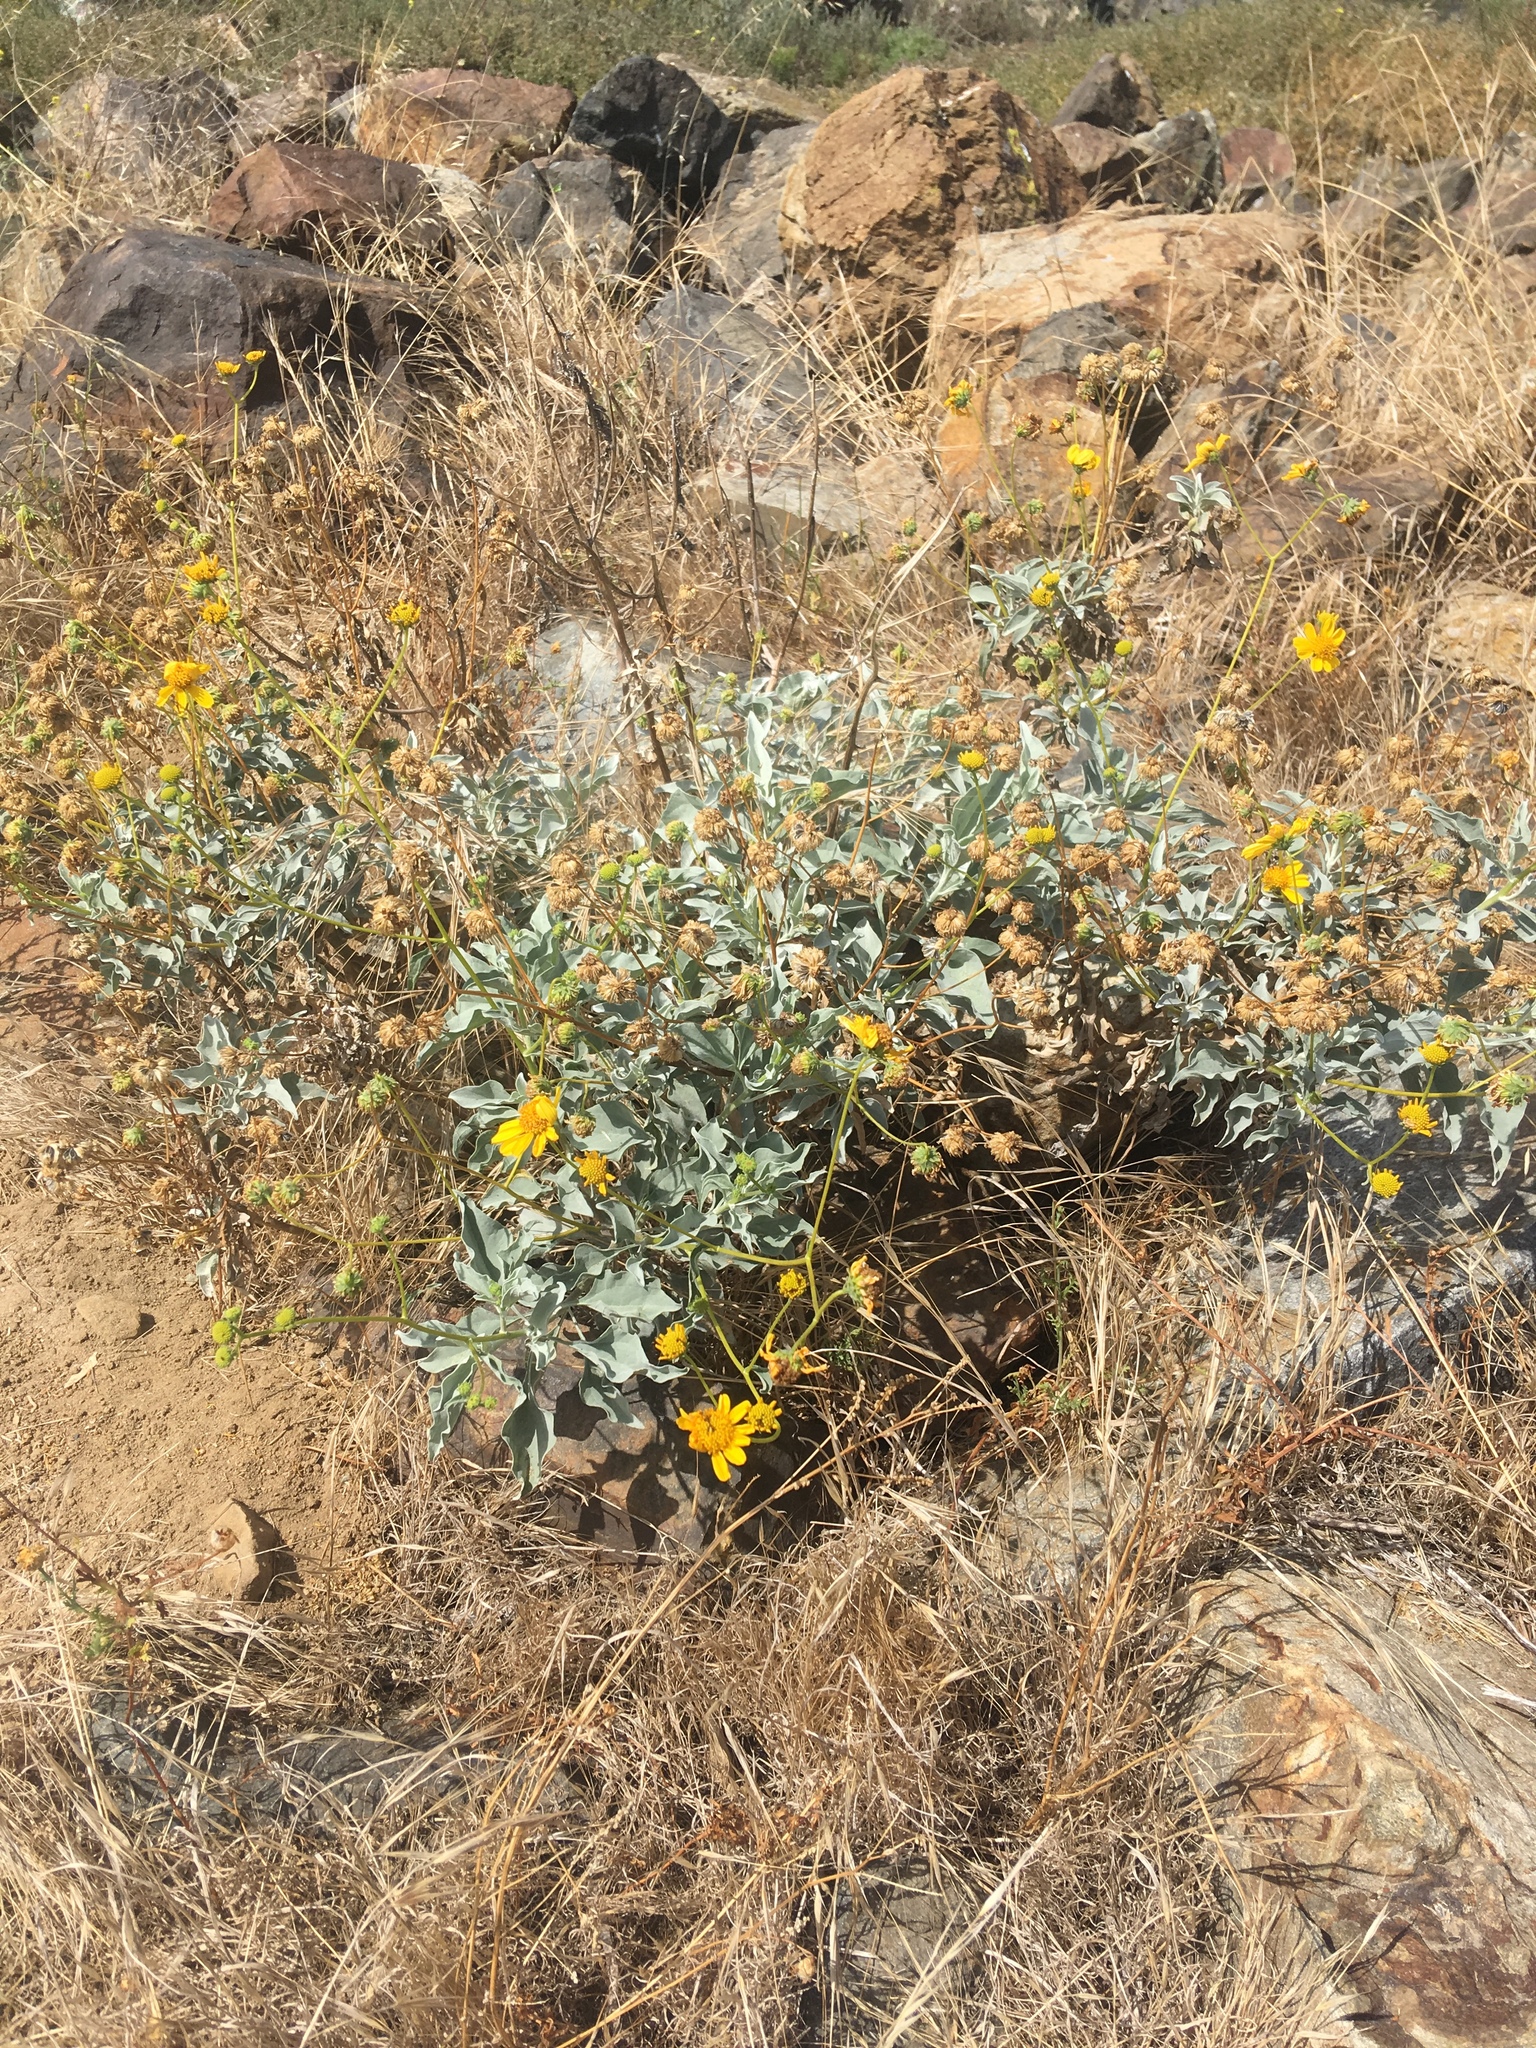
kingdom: Plantae
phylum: Tracheophyta
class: Magnoliopsida
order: Asterales
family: Asteraceae
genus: Encelia
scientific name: Encelia farinosa
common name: Brittlebush
